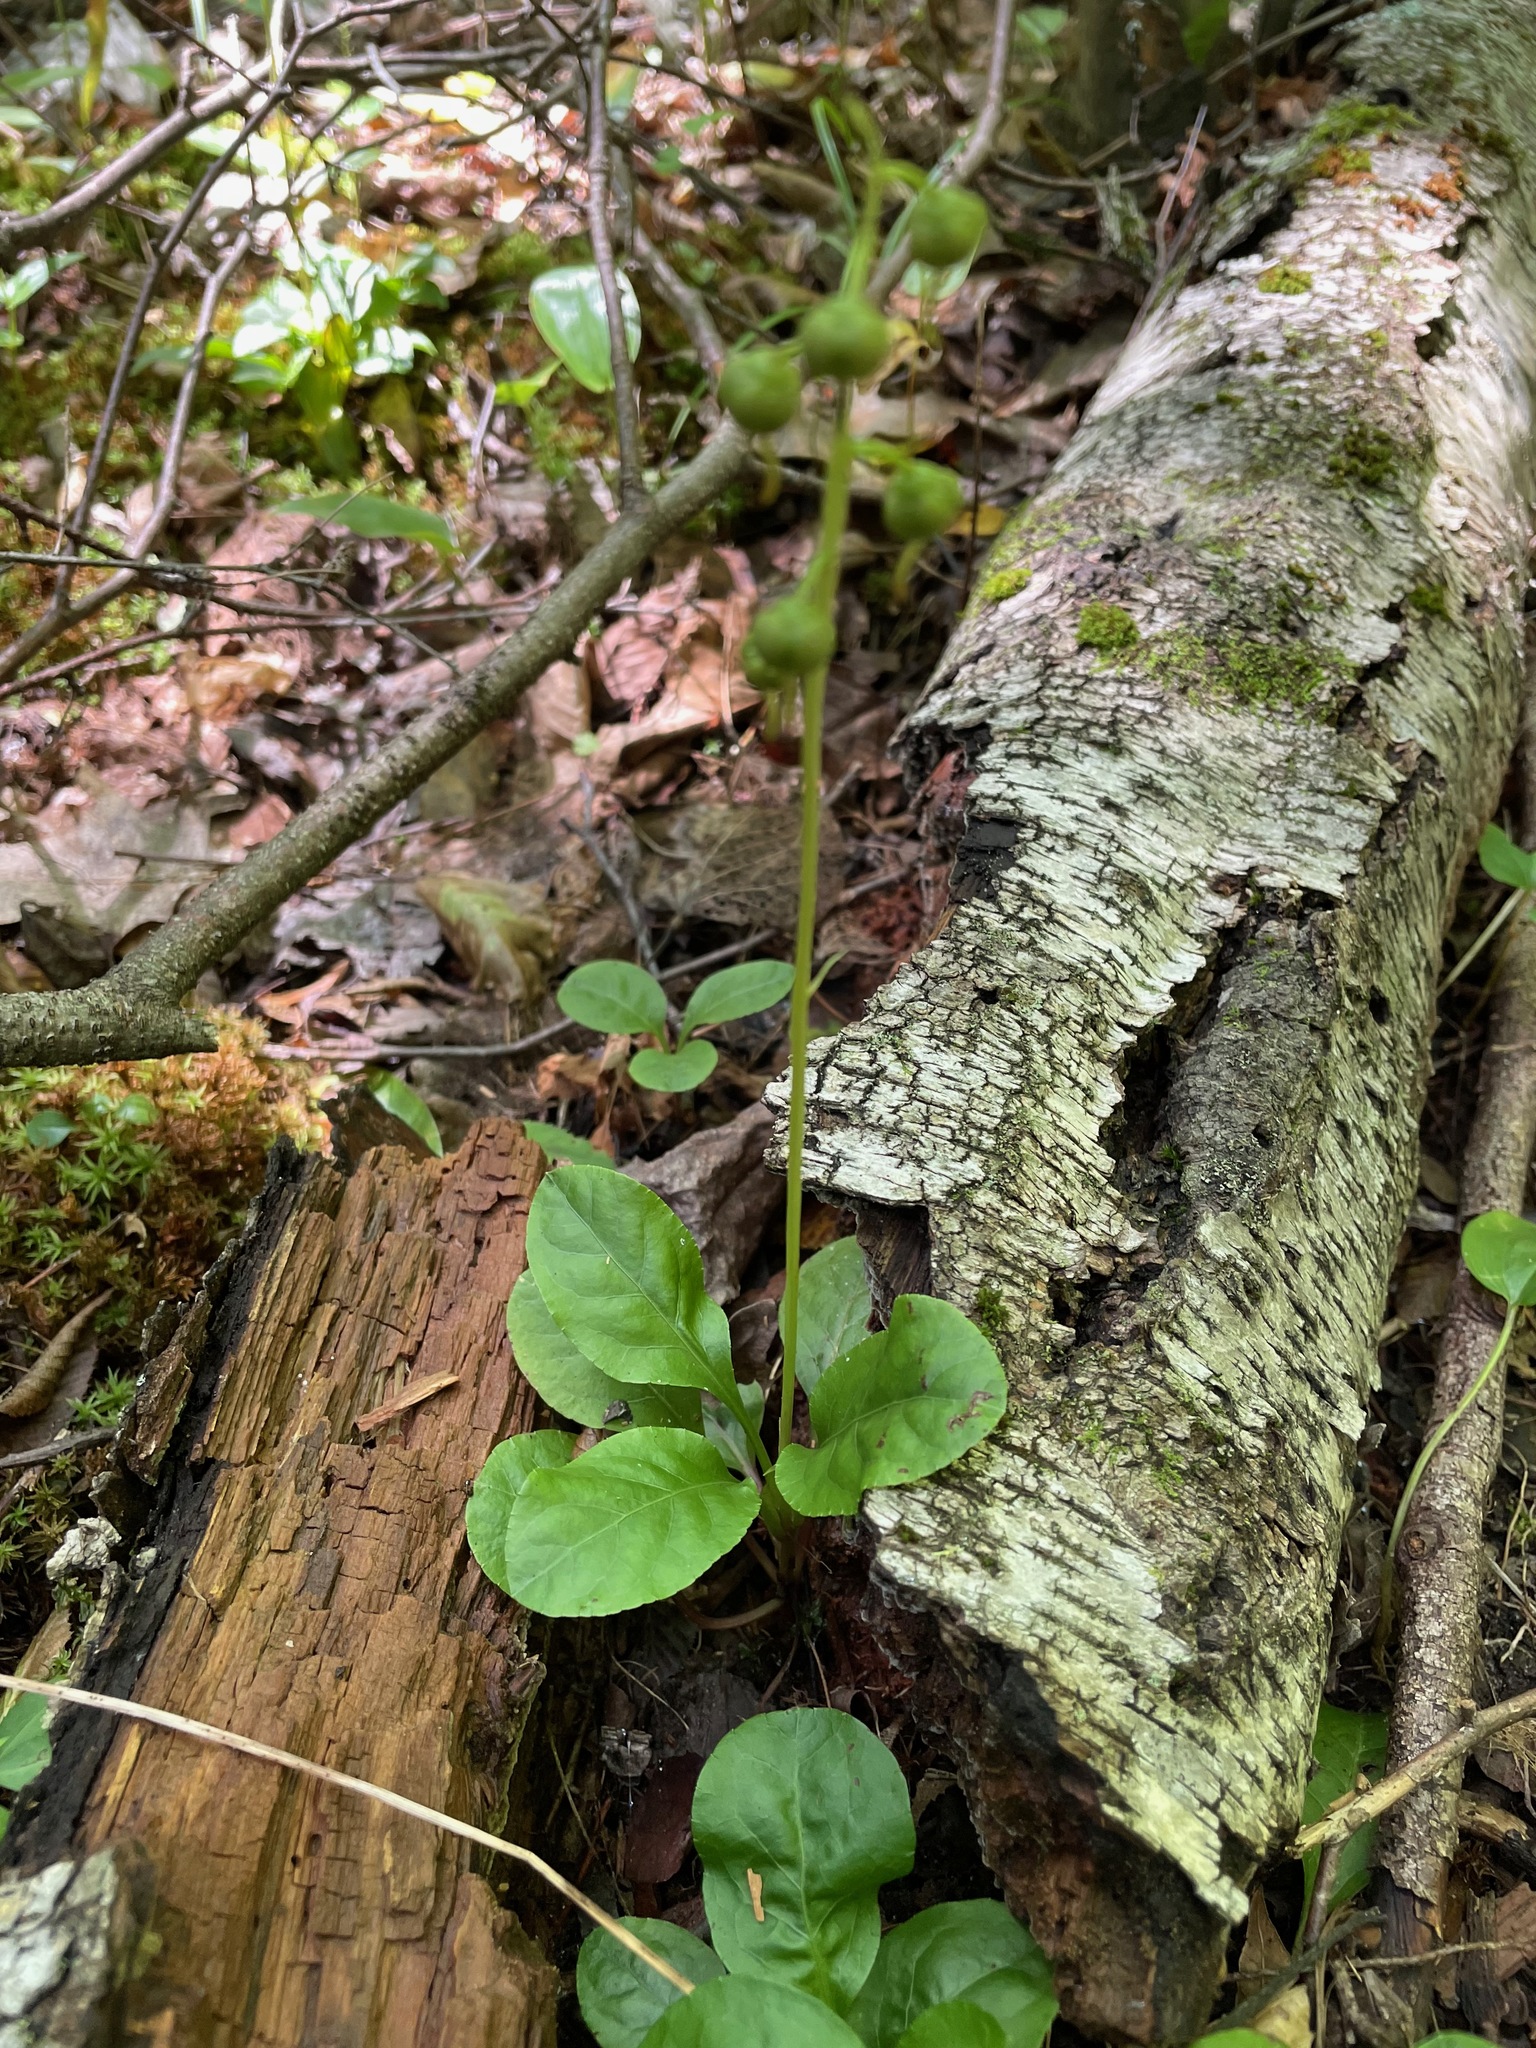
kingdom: Plantae
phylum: Tracheophyta
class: Magnoliopsida
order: Ericales
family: Ericaceae
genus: Pyrola
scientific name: Pyrola elliptica
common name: Shinleaf
